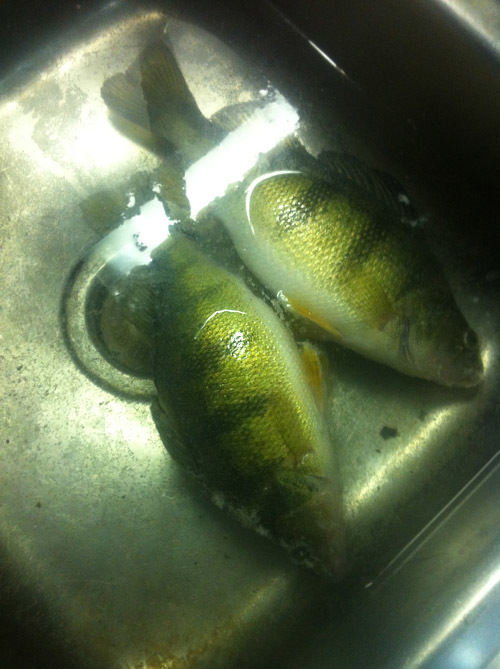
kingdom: Animalia
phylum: Chordata
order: Perciformes
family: Percidae
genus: Perca
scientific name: Perca flavescens
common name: Yellow perch
